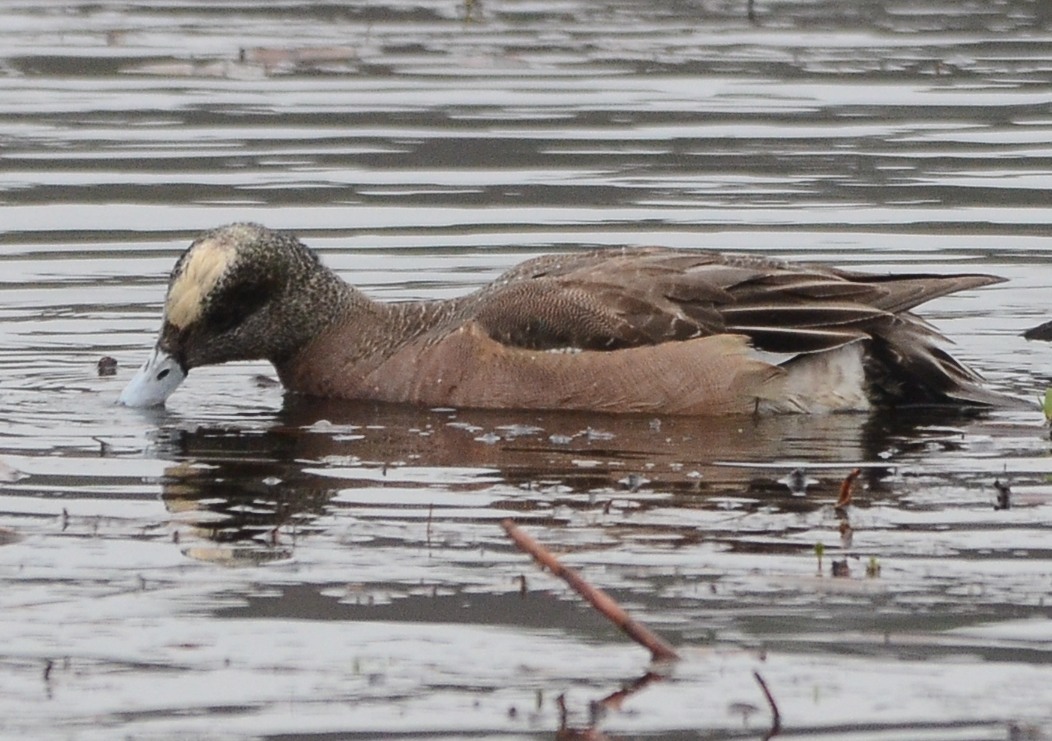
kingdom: Animalia
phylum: Chordata
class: Aves
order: Anseriformes
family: Anatidae
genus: Mareca
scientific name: Mareca americana
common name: American wigeon
